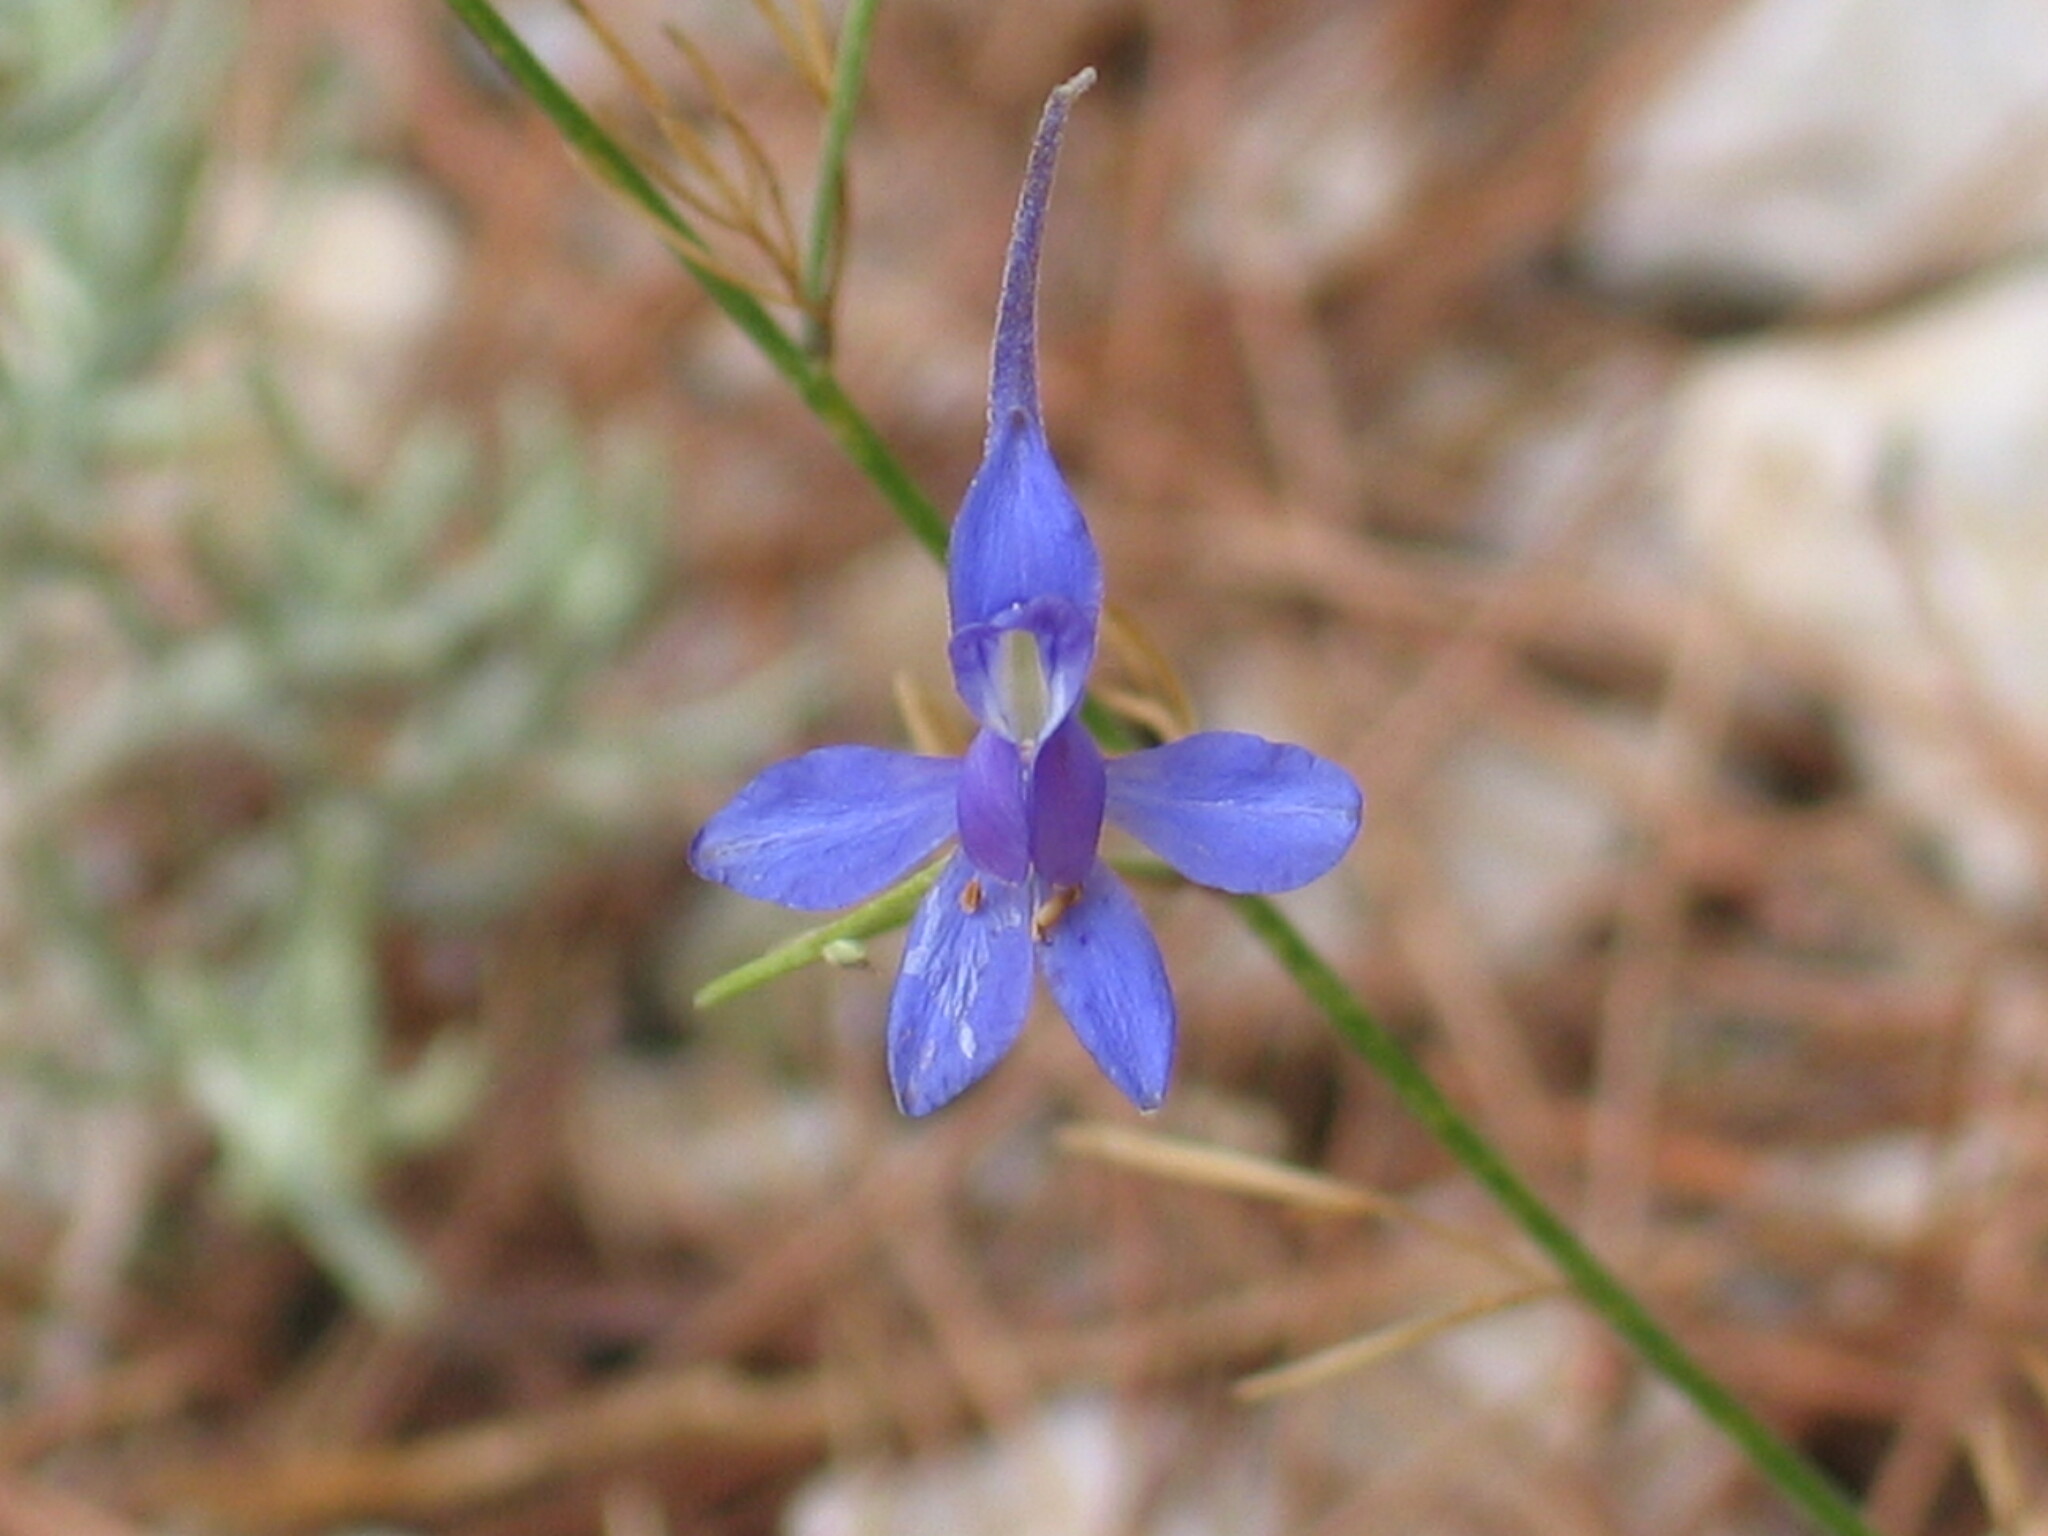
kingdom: Plantae
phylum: Tracheophyta
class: Magnoliopsida
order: Ranunculales
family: Ranunculaceae
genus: Delphinium
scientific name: Delphinium consolida
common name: Branching larkspur
